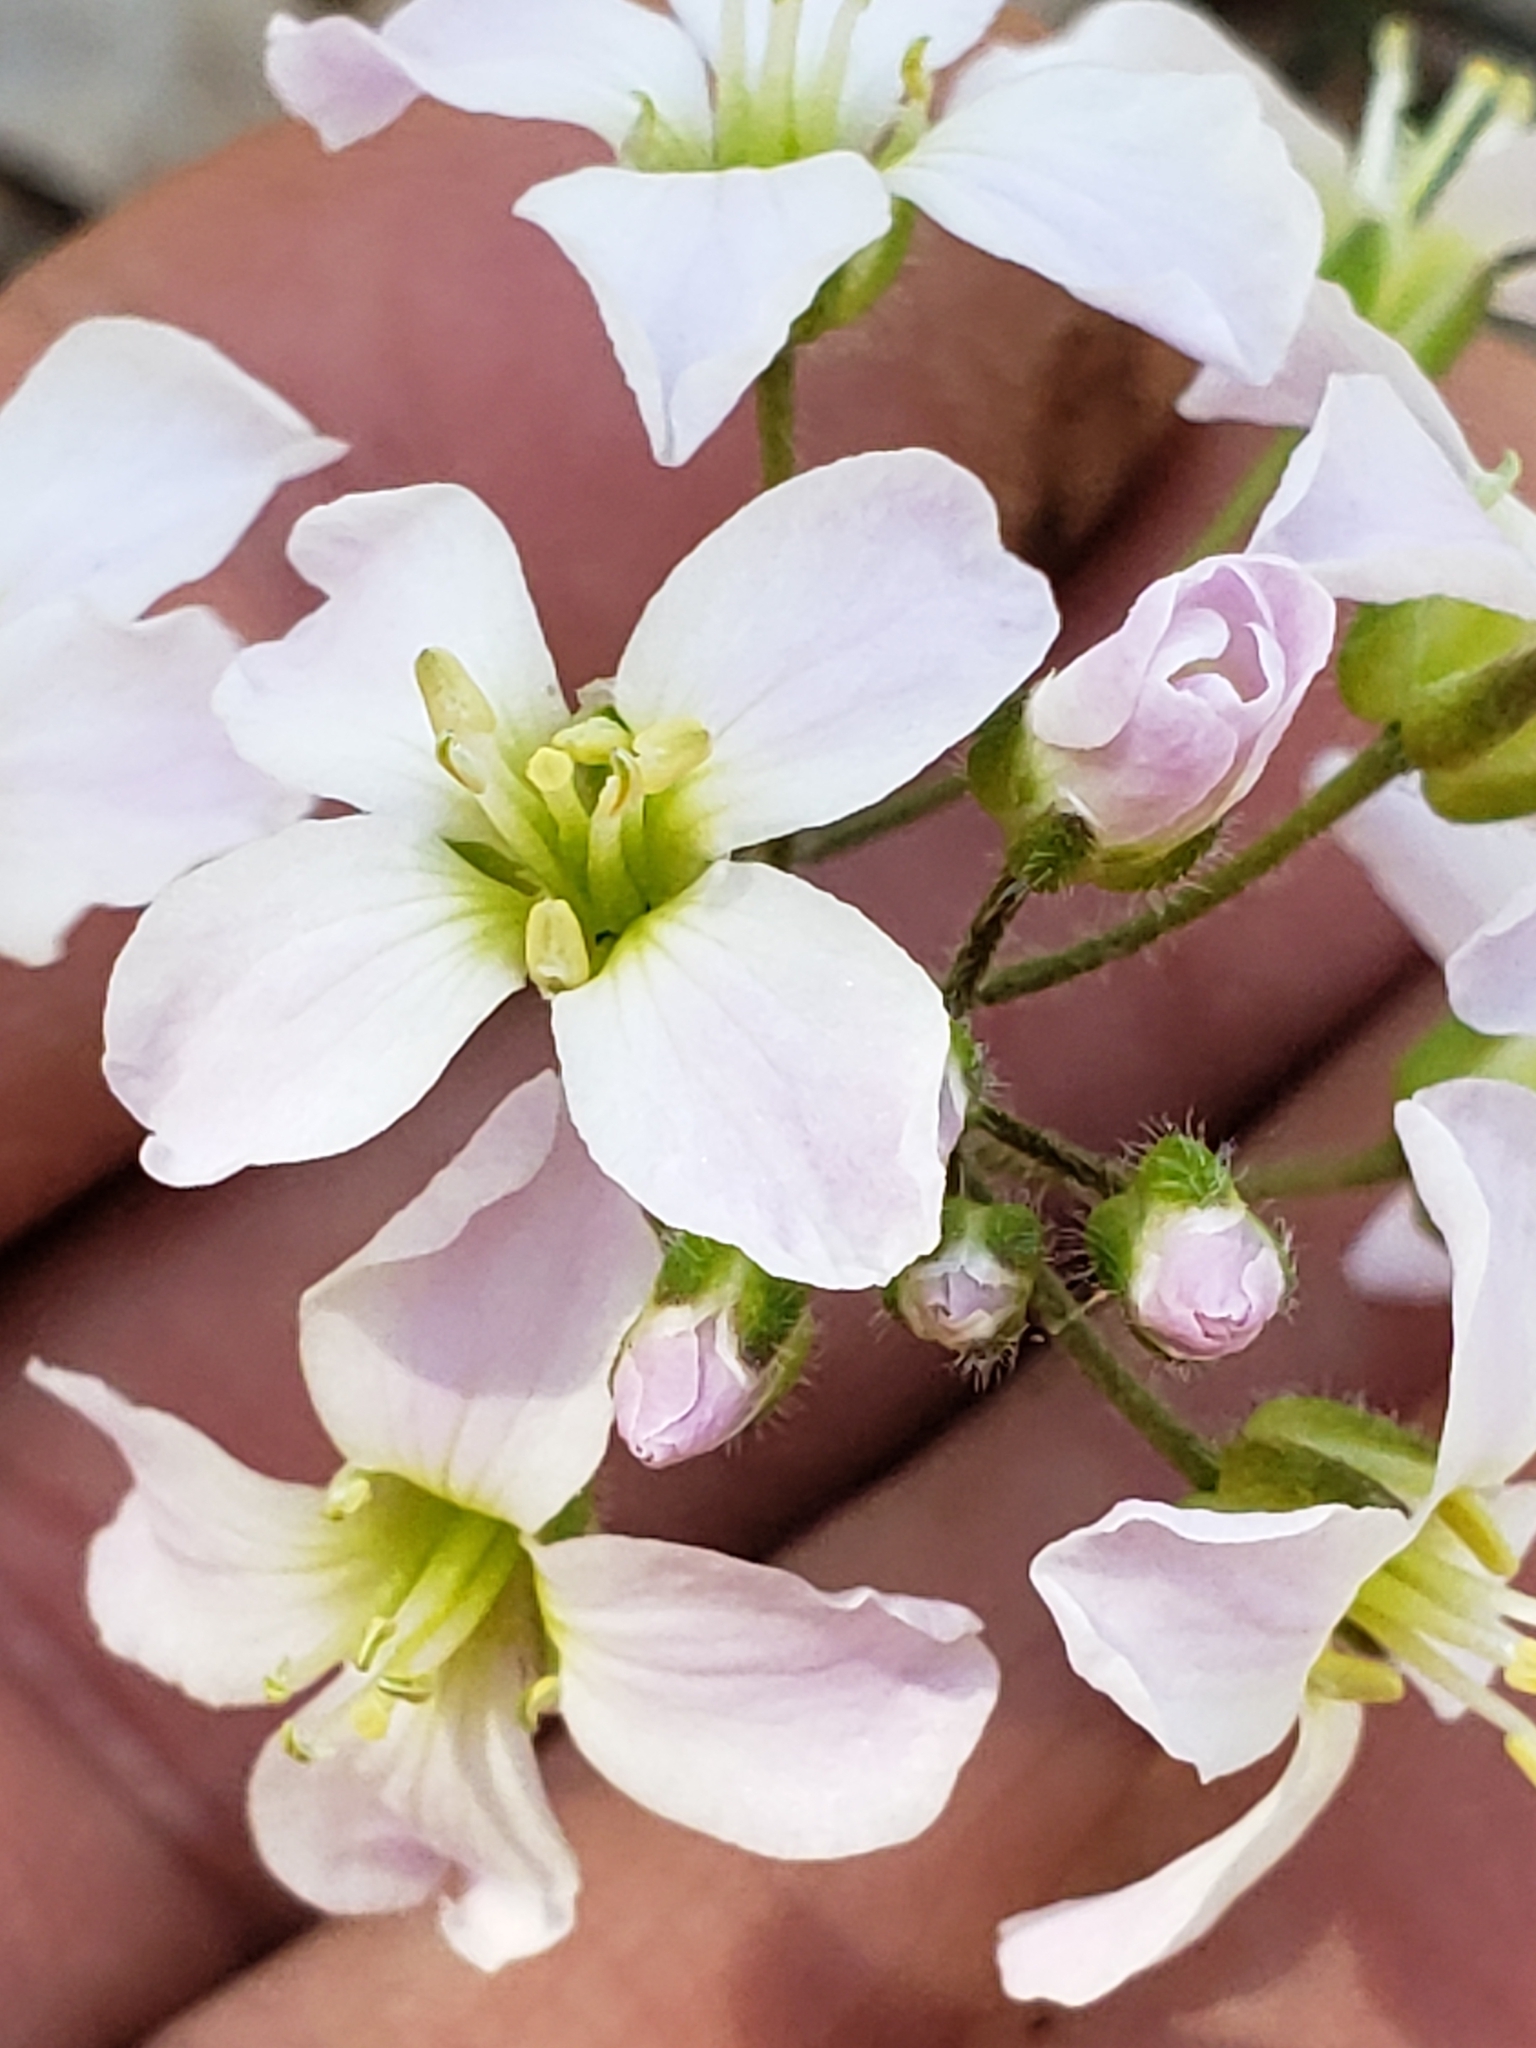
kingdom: Plantae
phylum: Tracheophyta
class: Magnoliopsida
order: Brassicales
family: Brassicaceae
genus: Cardamine
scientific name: Cardamine douglassii
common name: Purple cress
